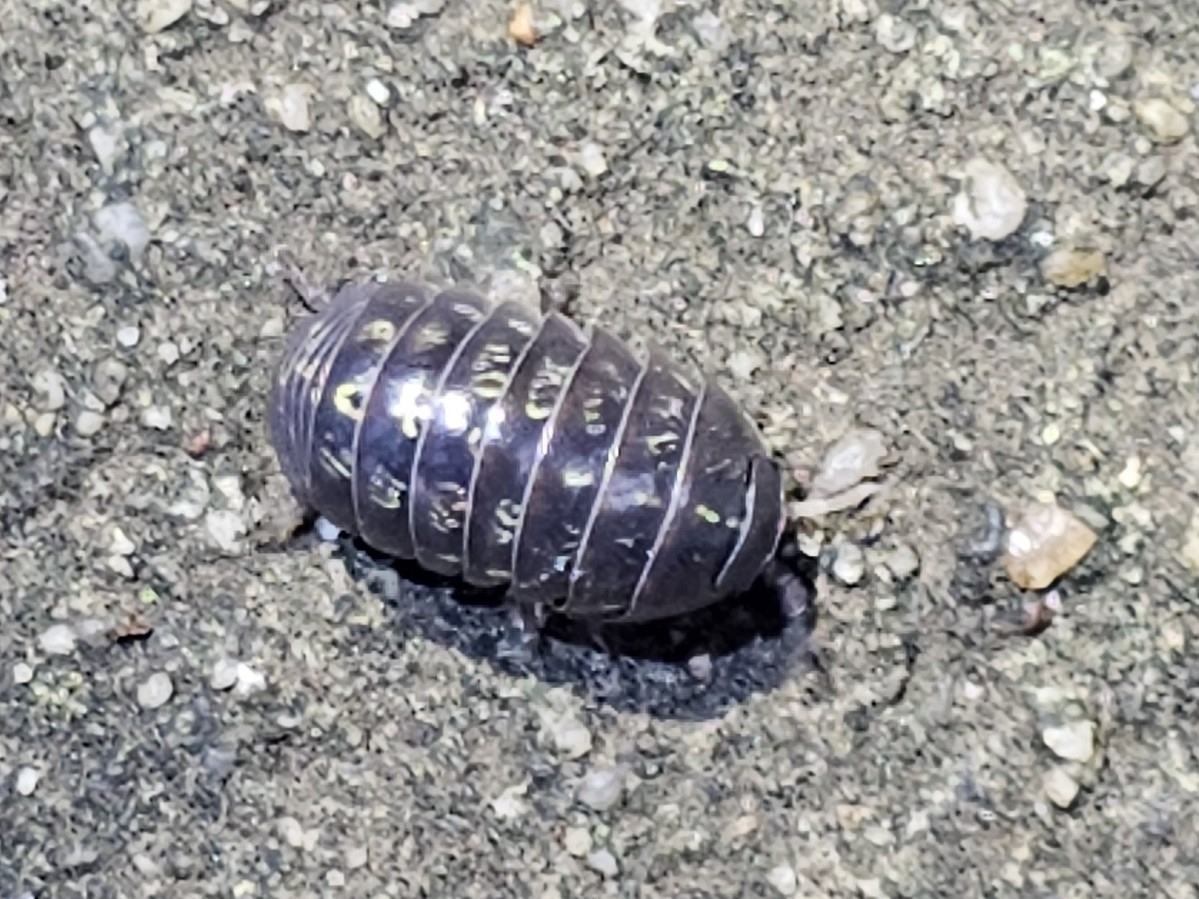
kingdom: Animalia
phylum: Arthropoda
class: Malacostraca
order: Isopoda
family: Armadillidiidae
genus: Armadillidium
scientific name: Armadillidium vulgare
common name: Common pill woodlouse
